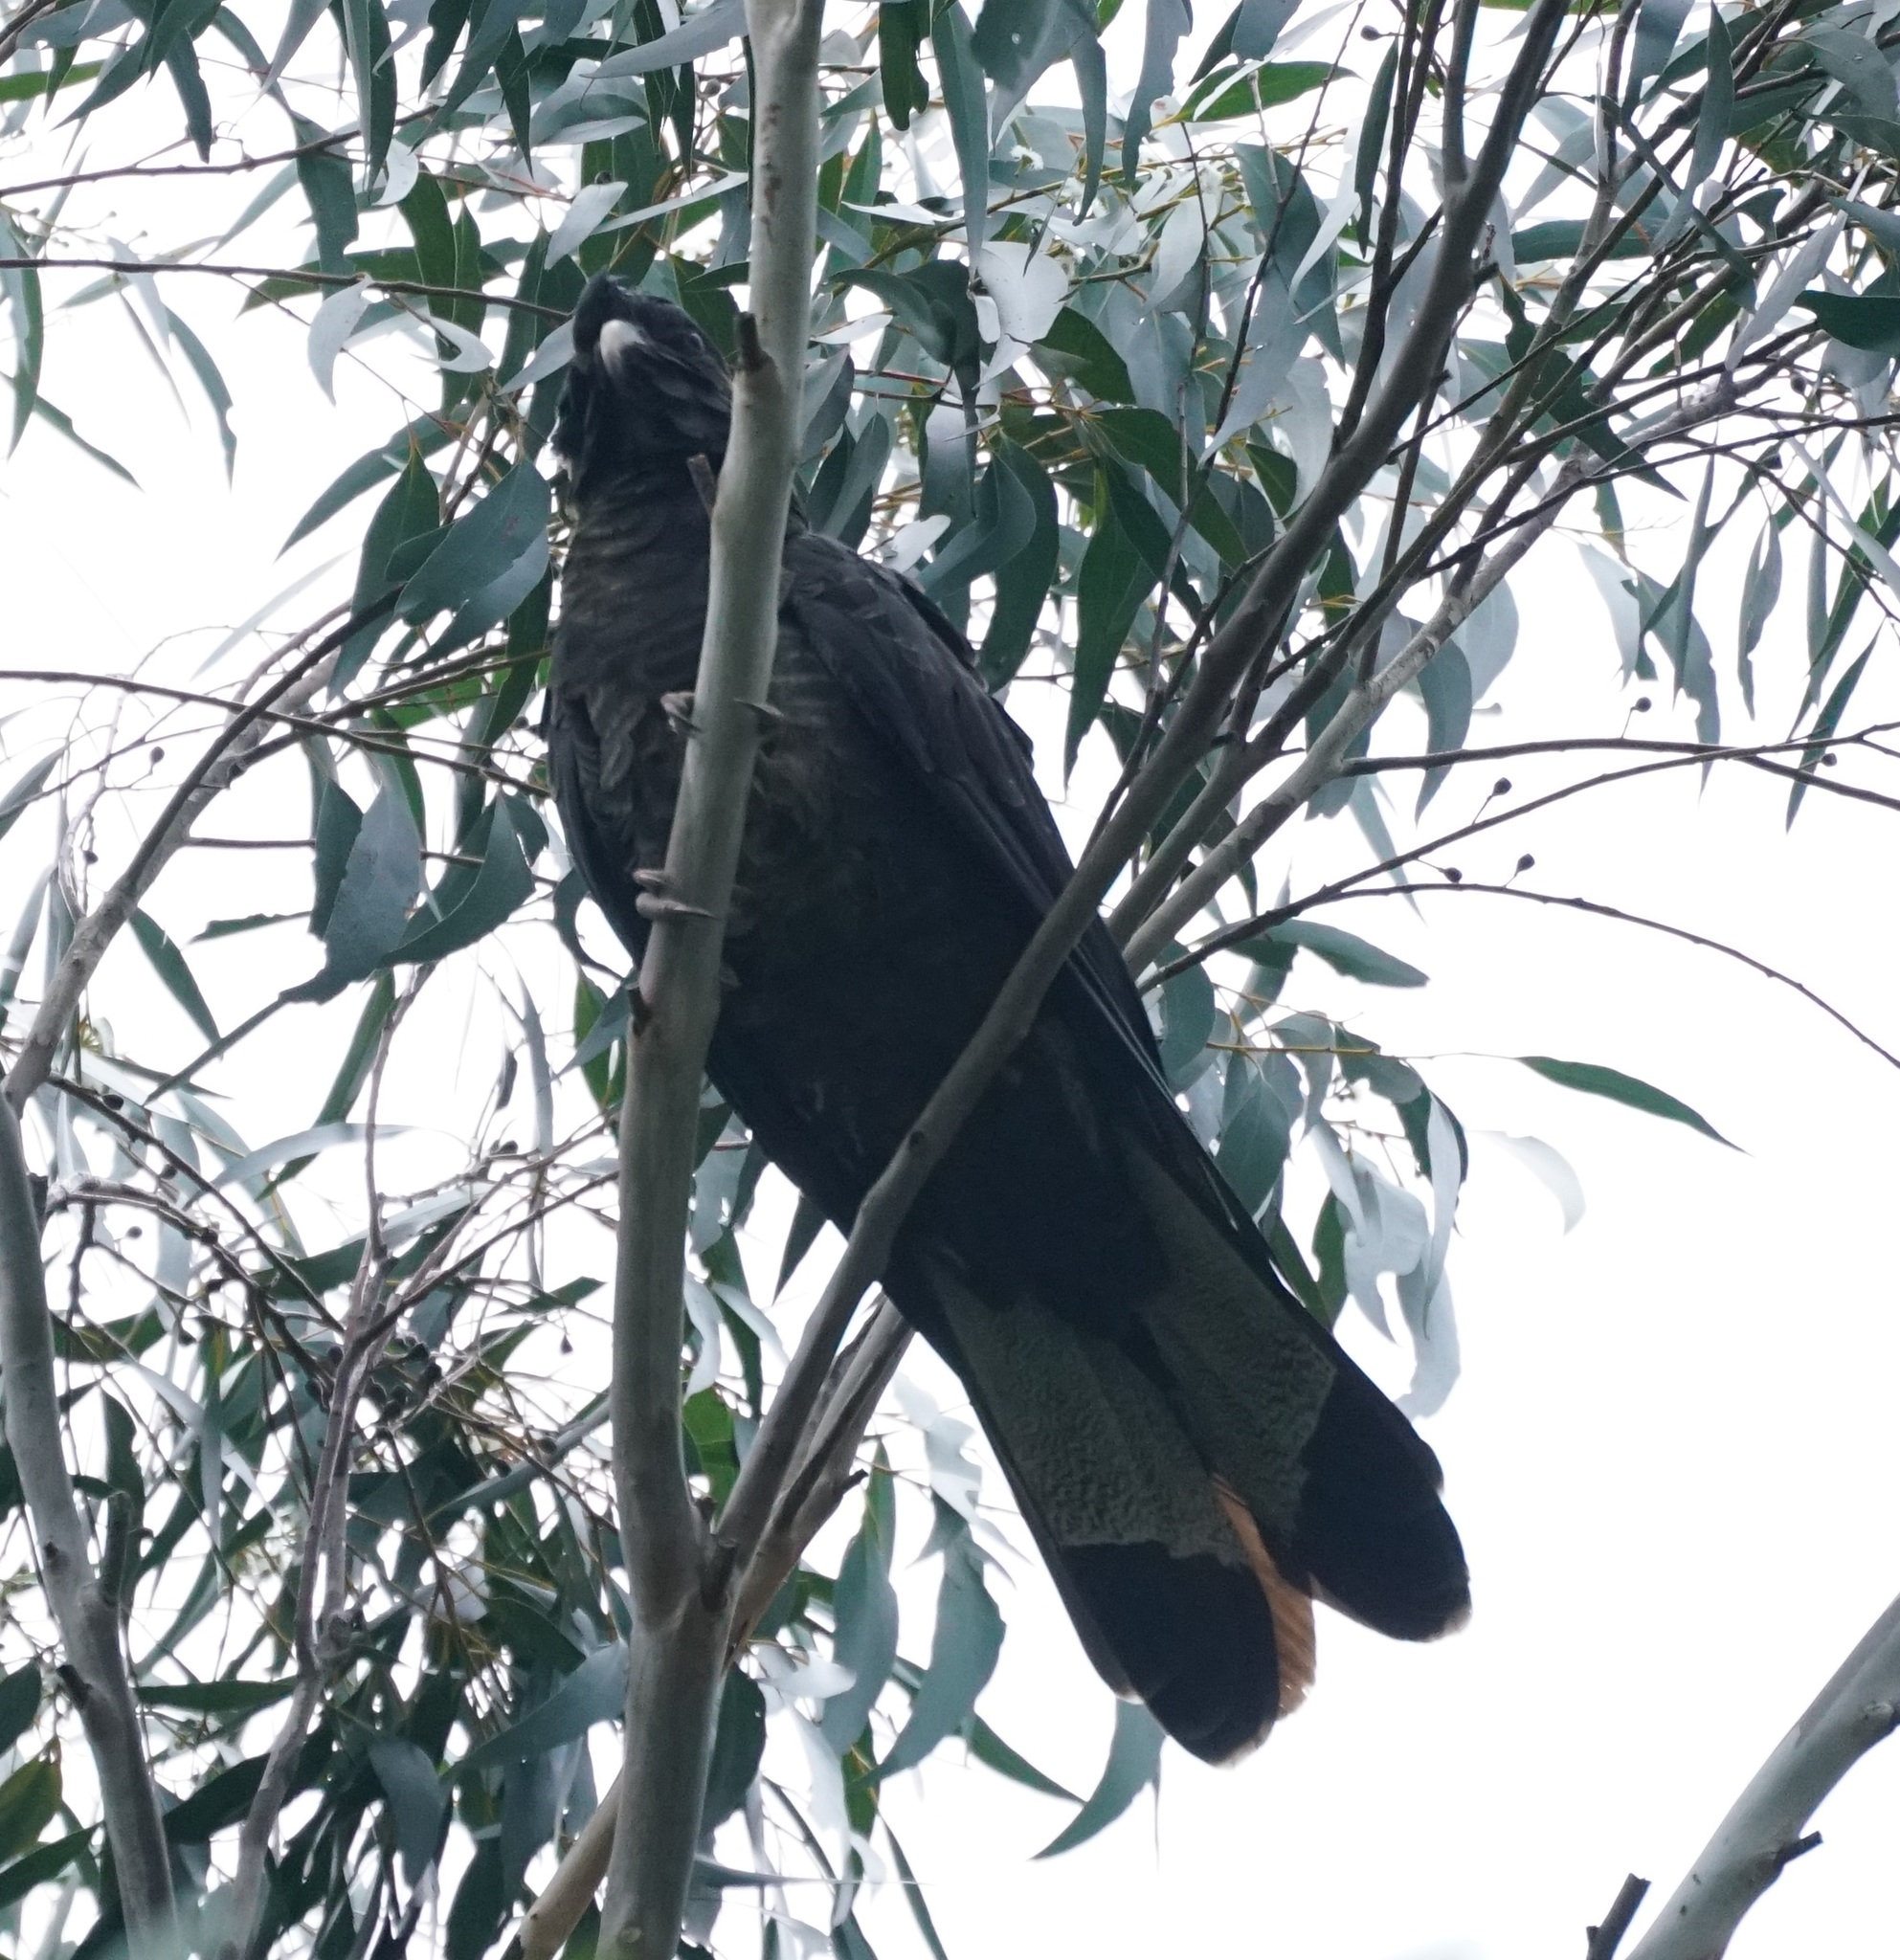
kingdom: Animalia
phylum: Chordata
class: Aves
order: Psittaciformes
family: Cacatuidae
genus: Zanda
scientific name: Zanda funerea
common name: Yellow-tailed black-cockatoo
